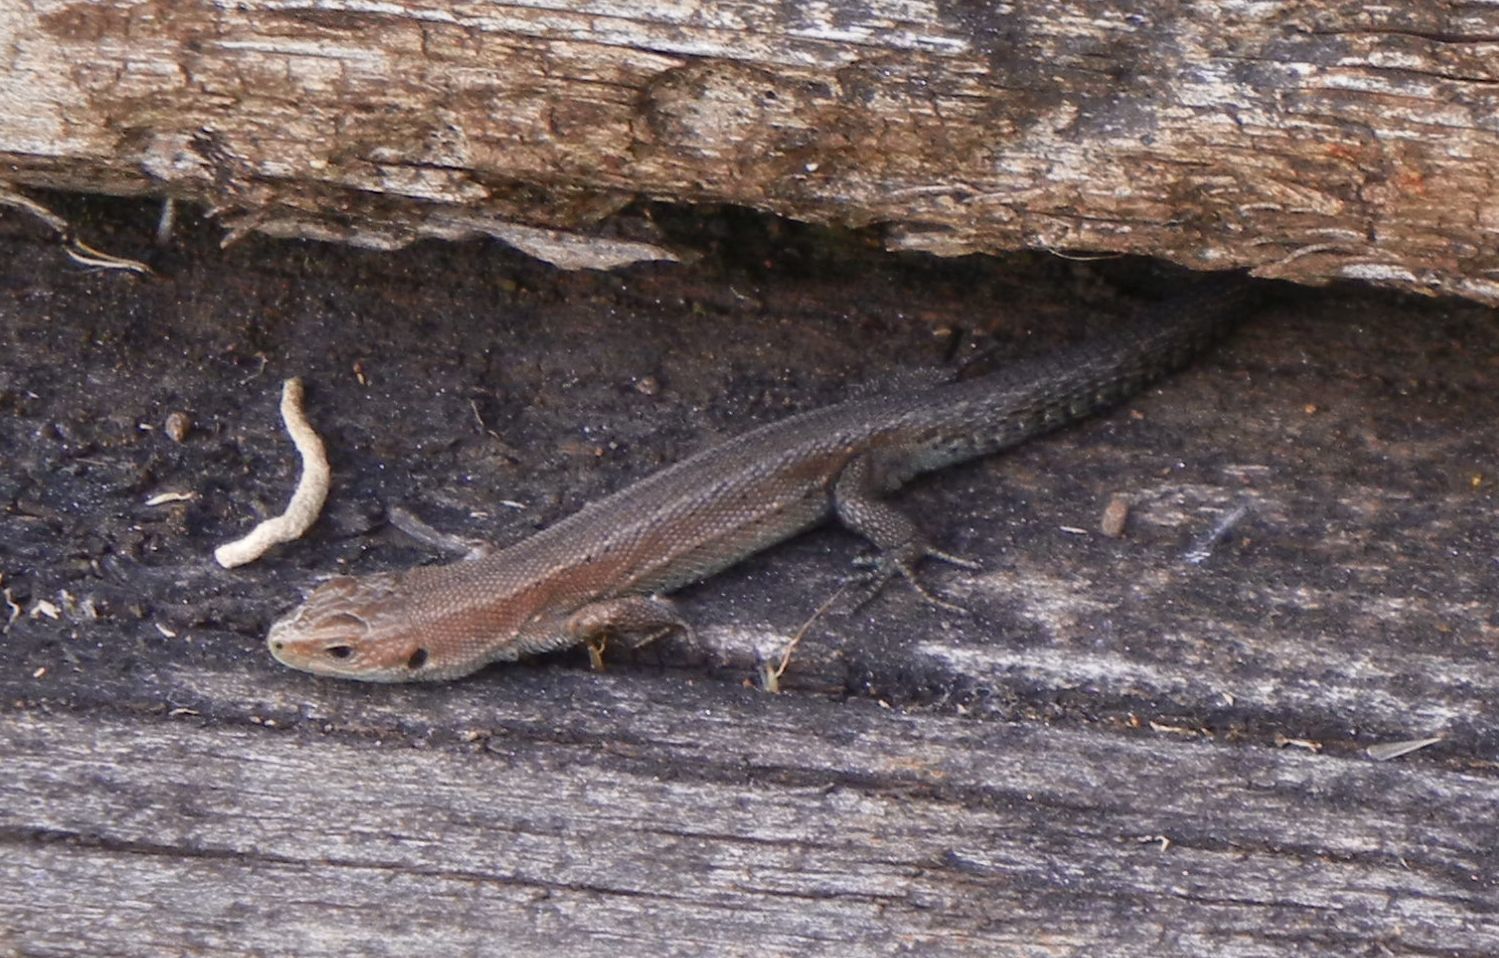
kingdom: Animalia
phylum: Chordata
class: Squamata
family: Lacertidae
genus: Zootoca
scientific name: Zootoca vivipara
